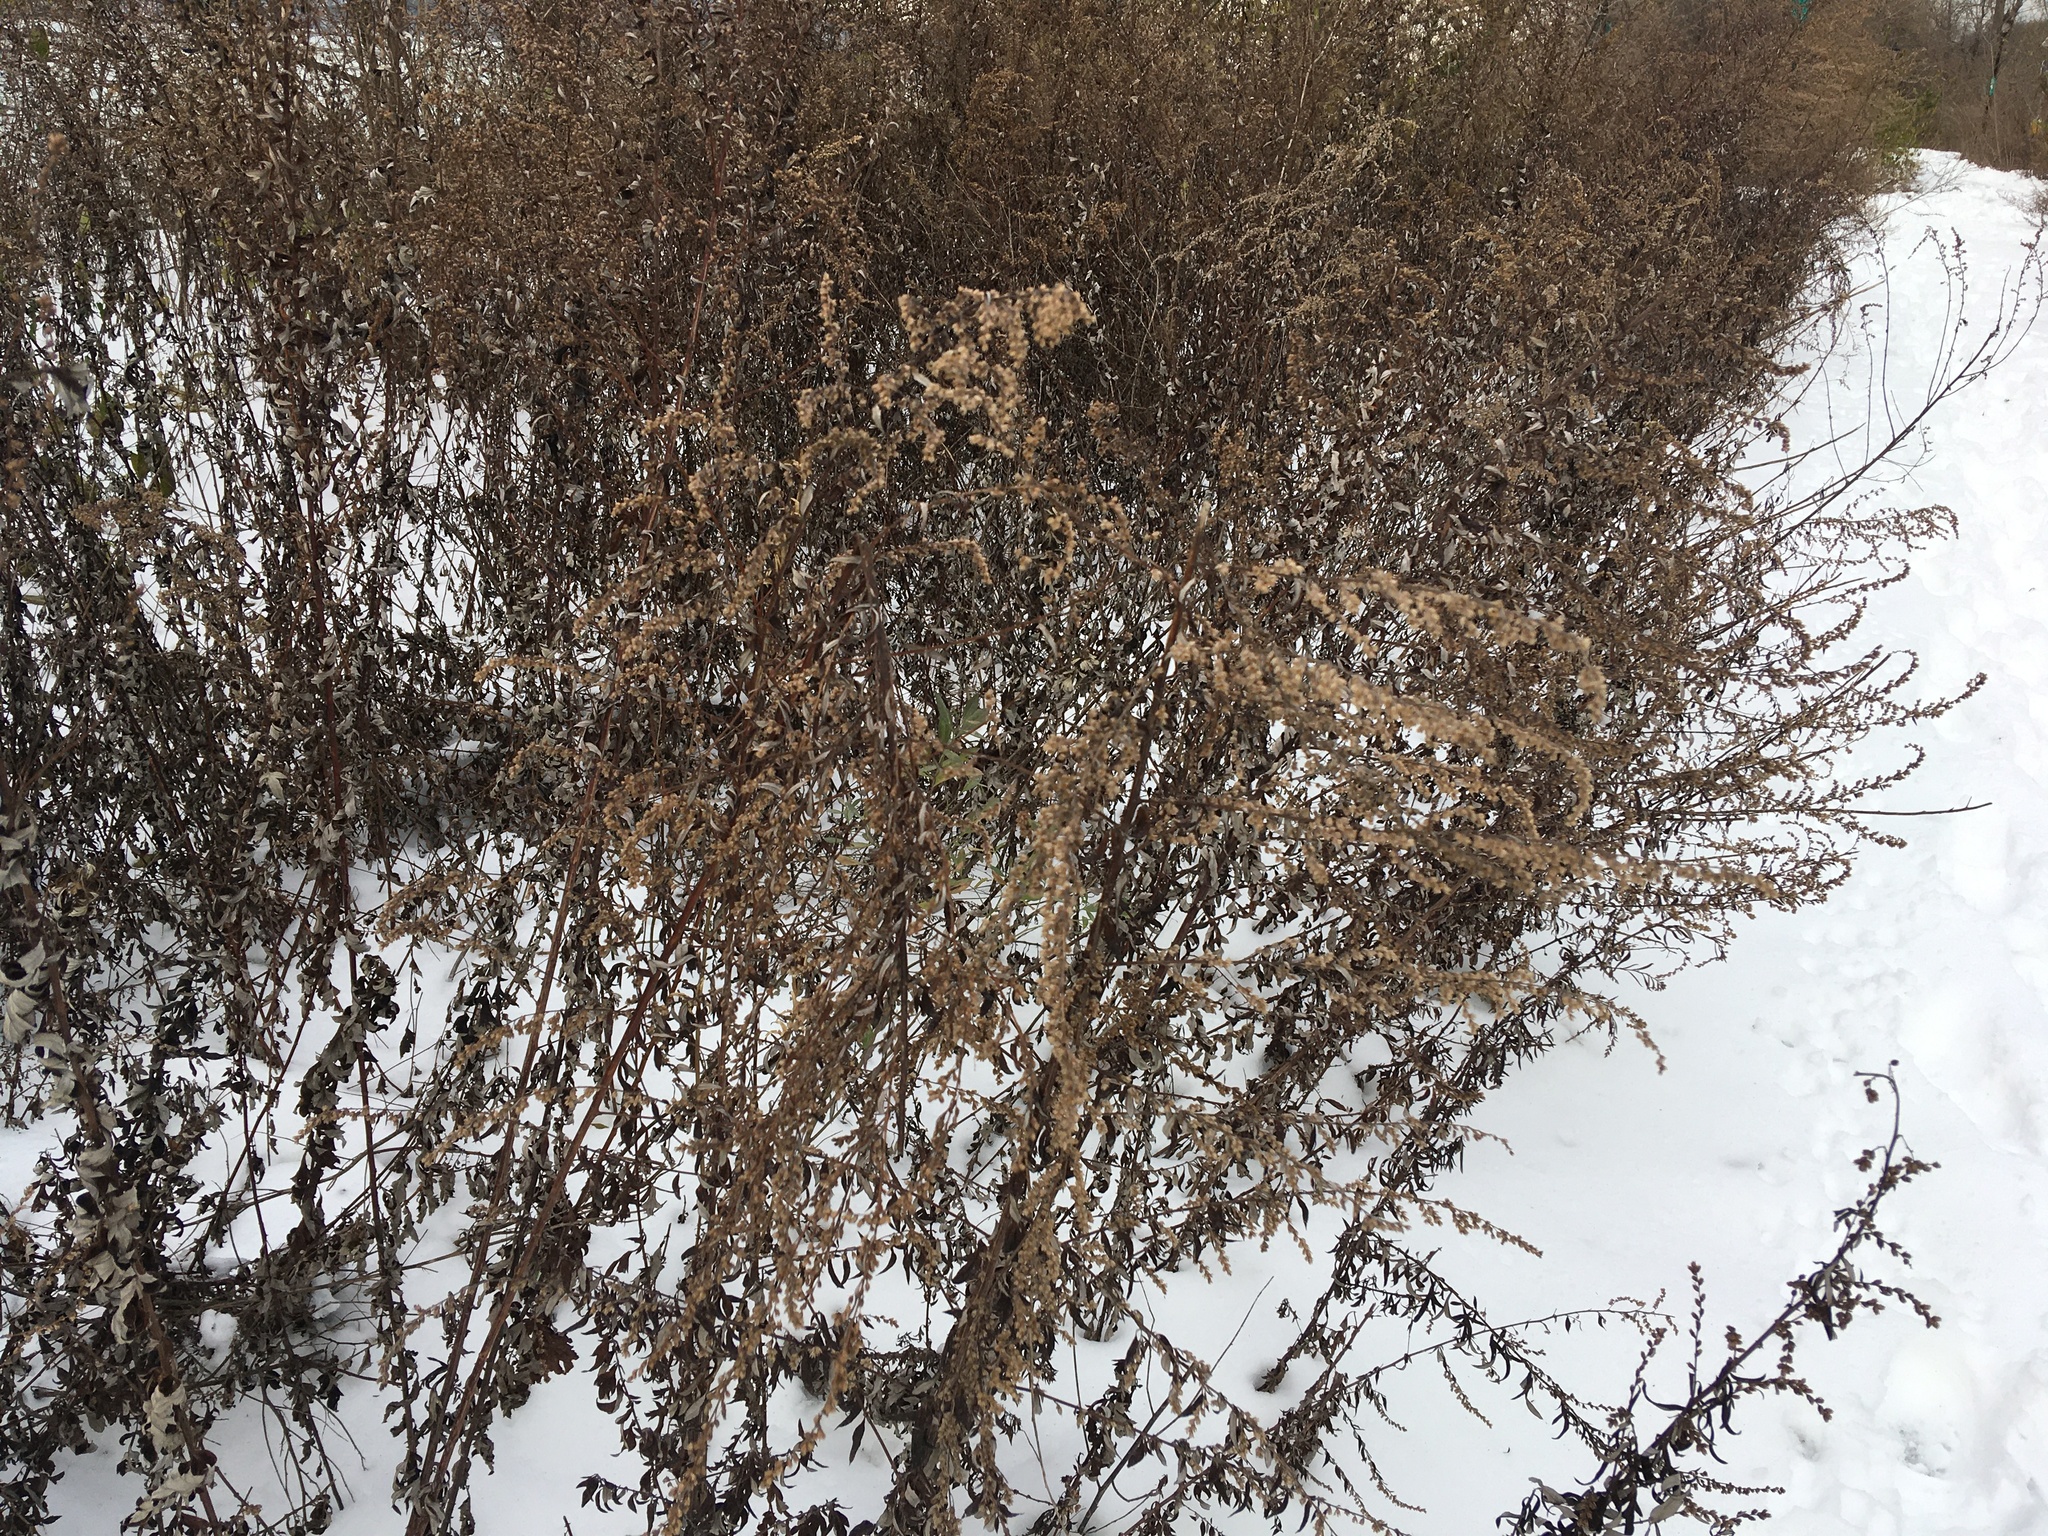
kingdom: Plantae
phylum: Tracheophyta
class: Magnoliopsida
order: Asterales
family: Asteraceae
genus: Artemisia
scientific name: Artemisia vulgaris
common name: Mugwort
